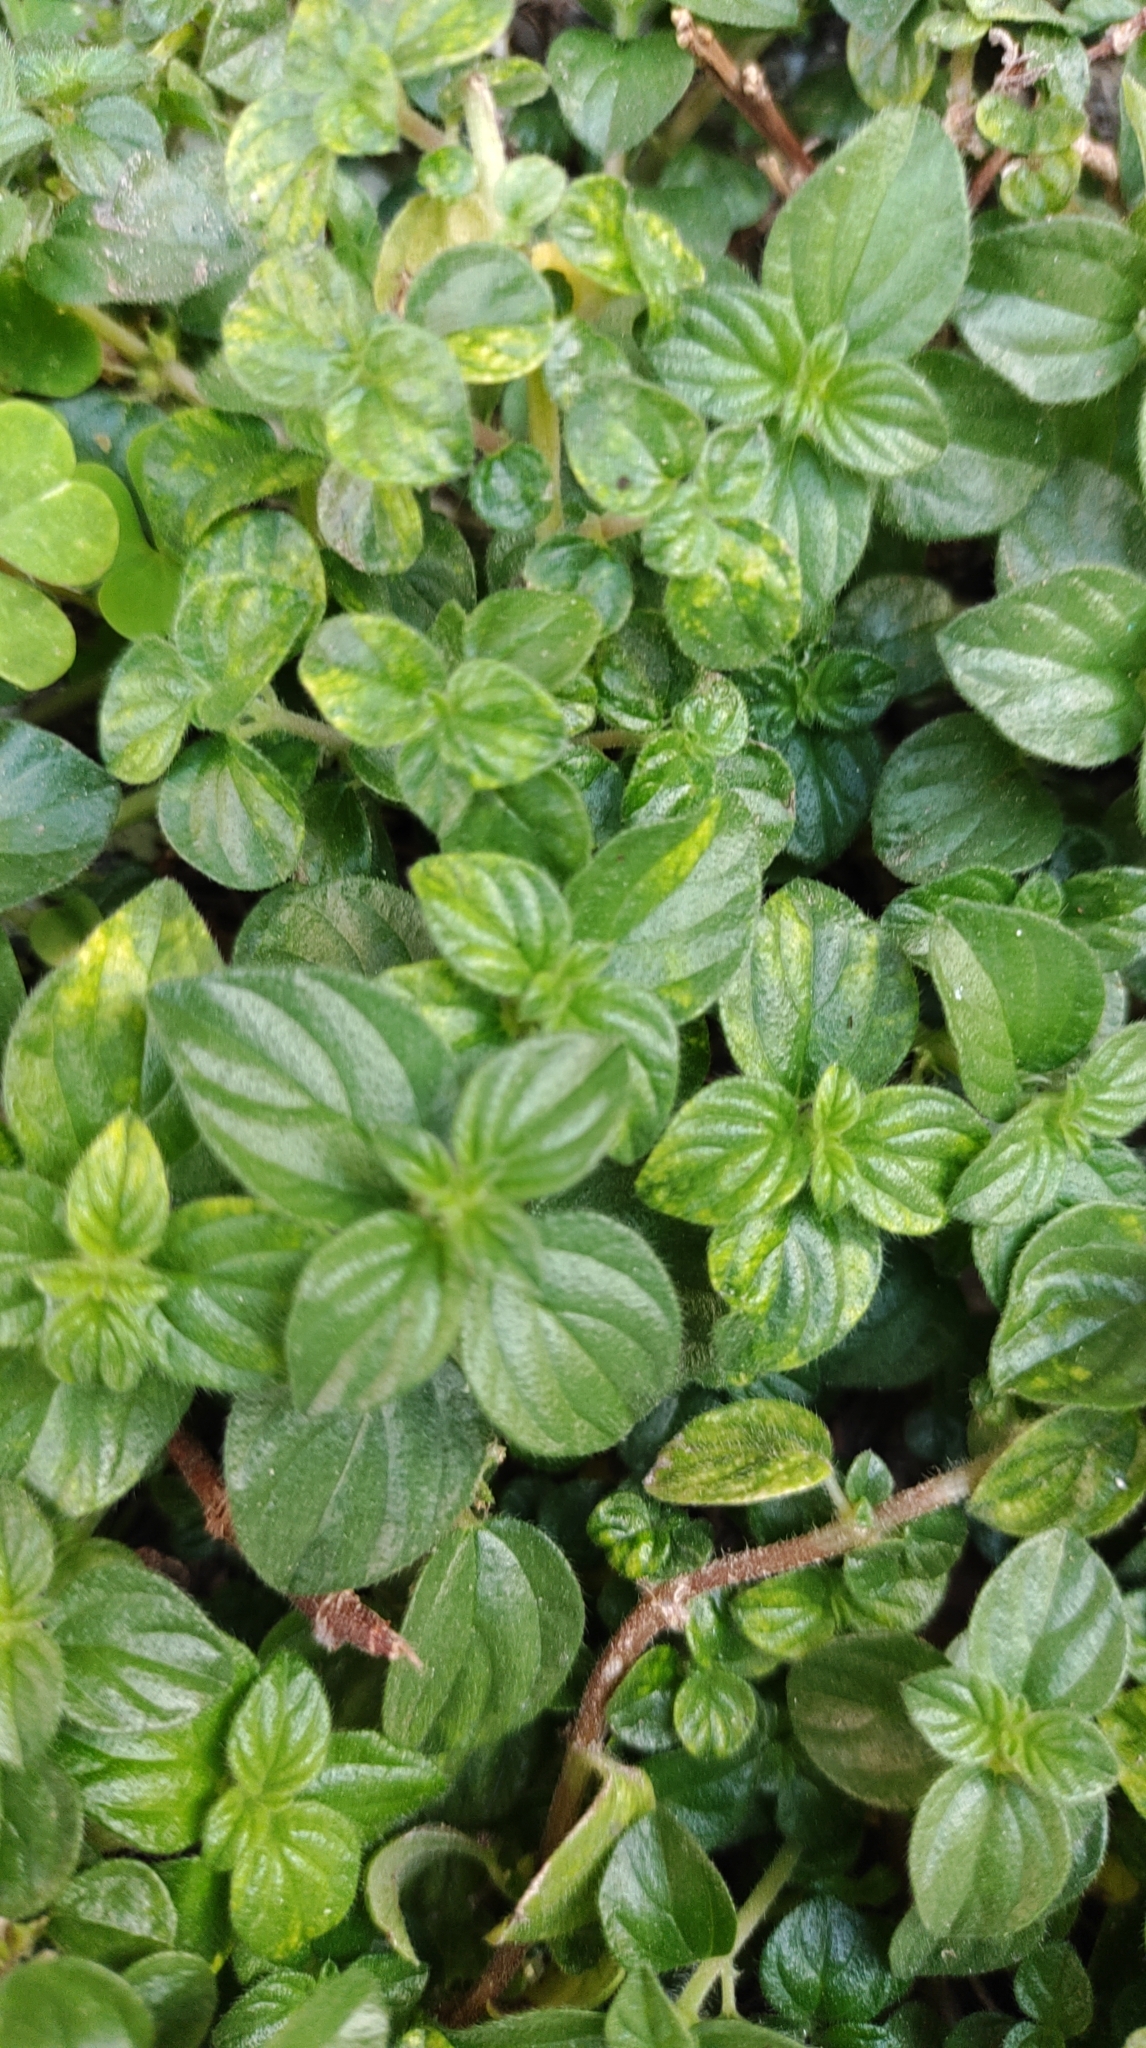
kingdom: Plantae
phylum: Tracheophyta
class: Magnoliopsida
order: Rosales
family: Urticaceae
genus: Pouzolzia
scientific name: Pouzolzia zeylanica
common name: Graceful pouzolzsbush
